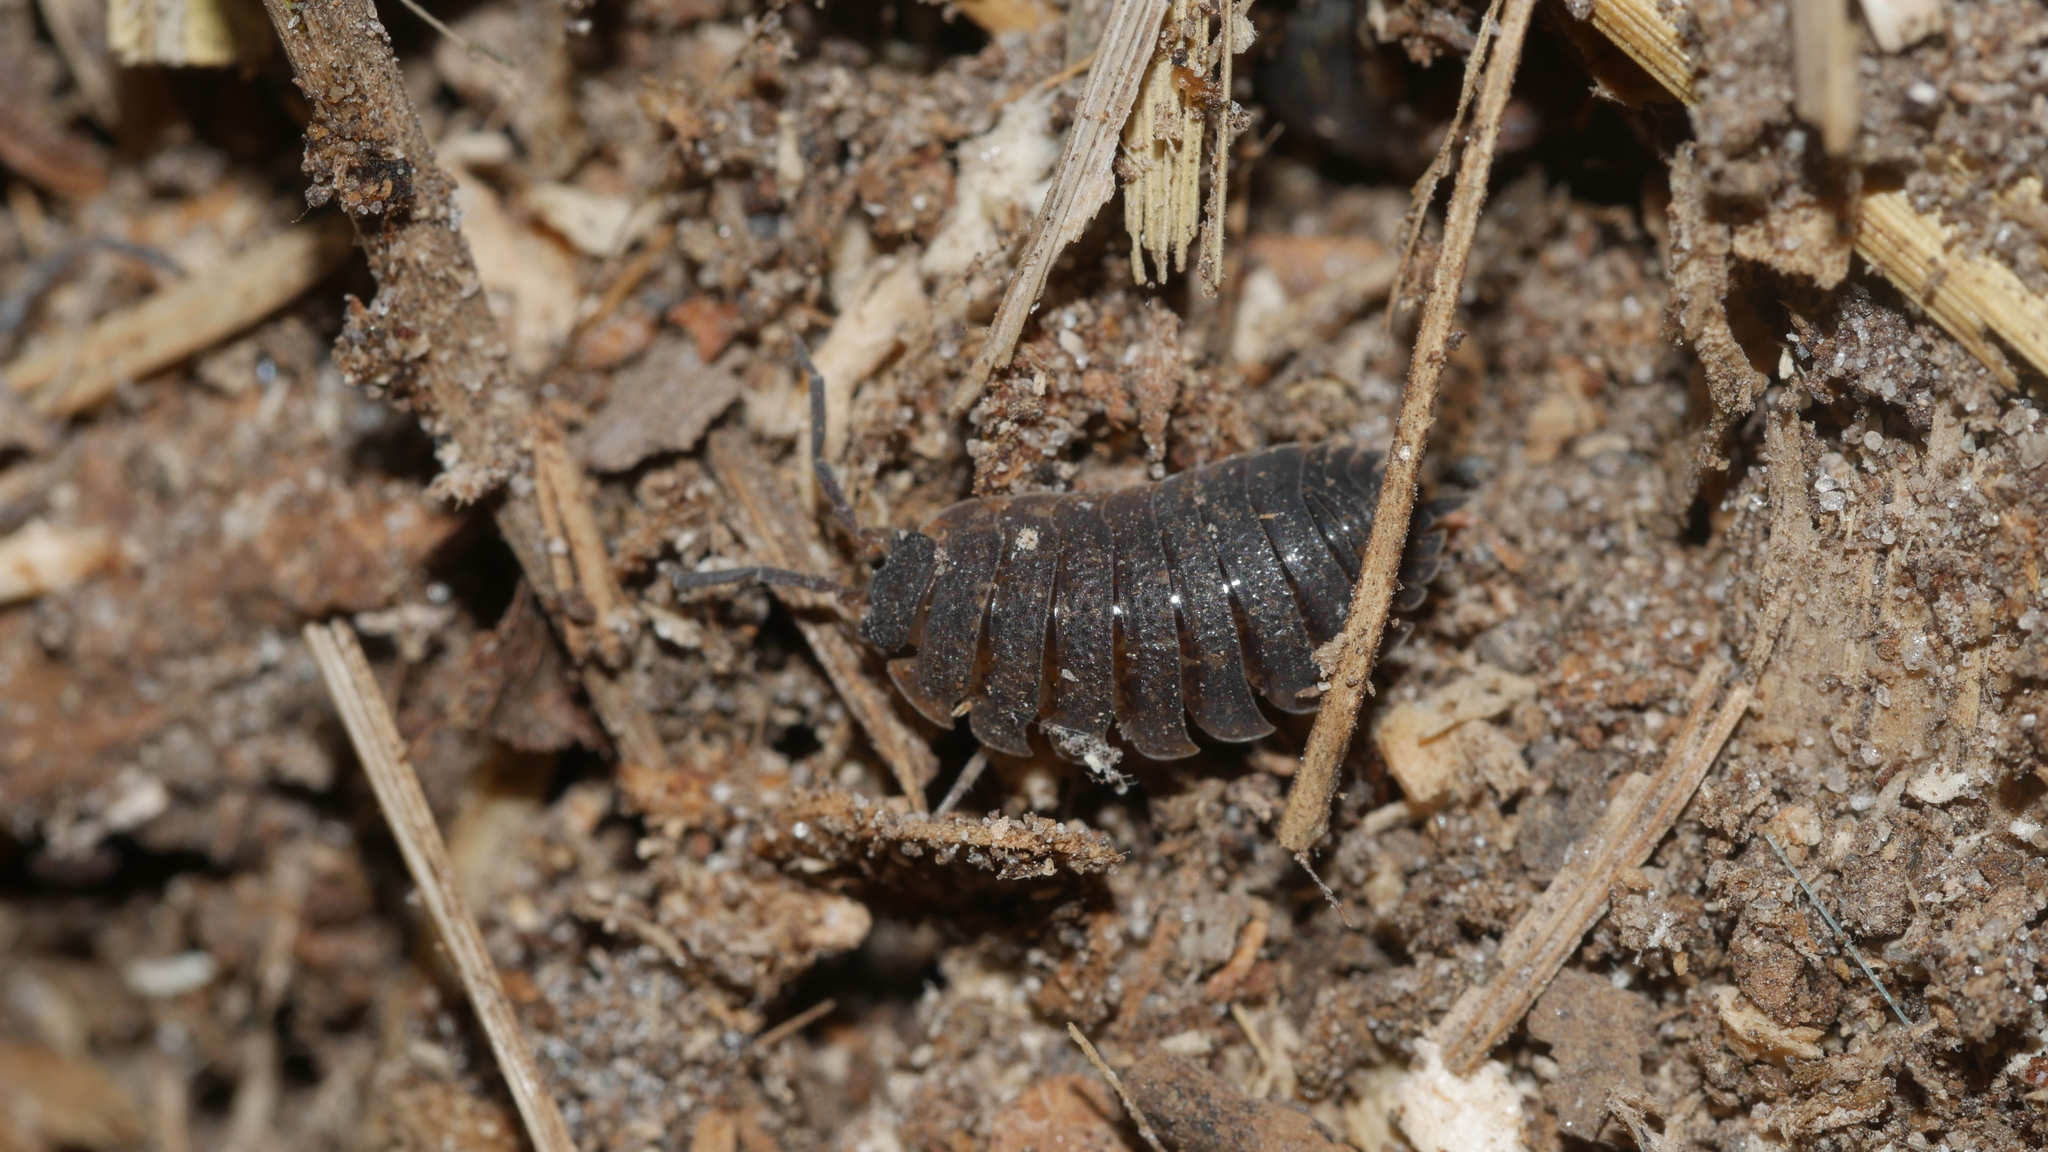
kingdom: Animalia
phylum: Arthropoda
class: Malacostraca
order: Isopoda
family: Porcellionidae
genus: Porcellio
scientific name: Porcellio scaber
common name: Common rough woodlouse
